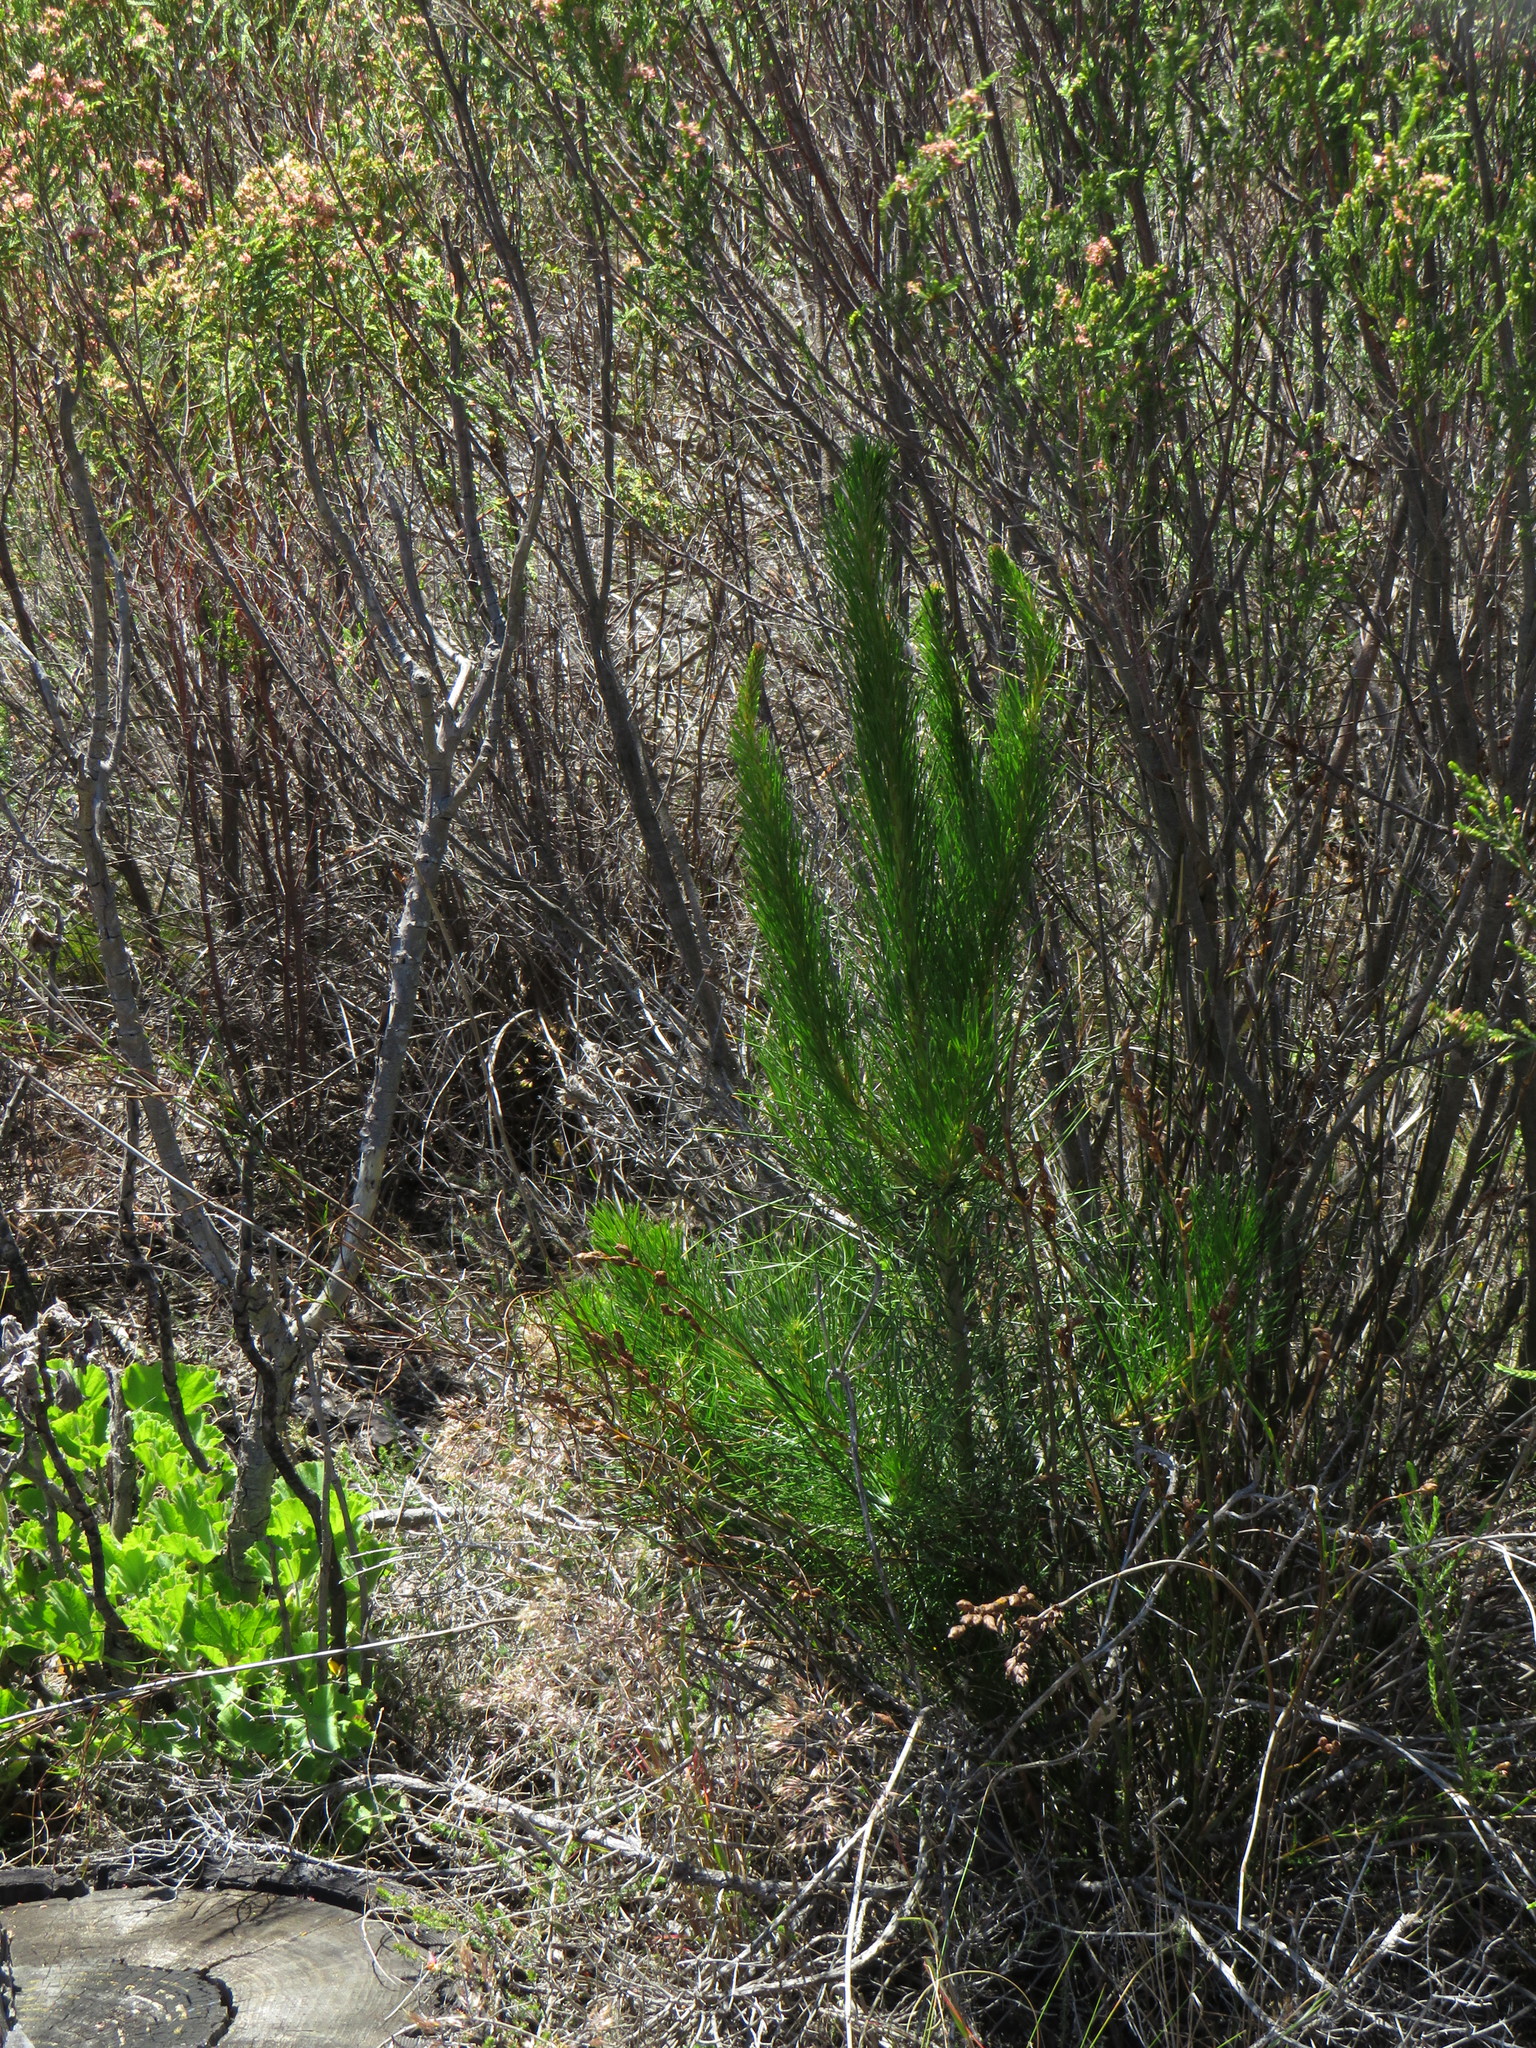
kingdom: Plantae
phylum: Tracheophyta
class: Pinopsida
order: Pinales
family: Pinaceae
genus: Pinus
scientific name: Pinus radiata
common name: Monterey pine
